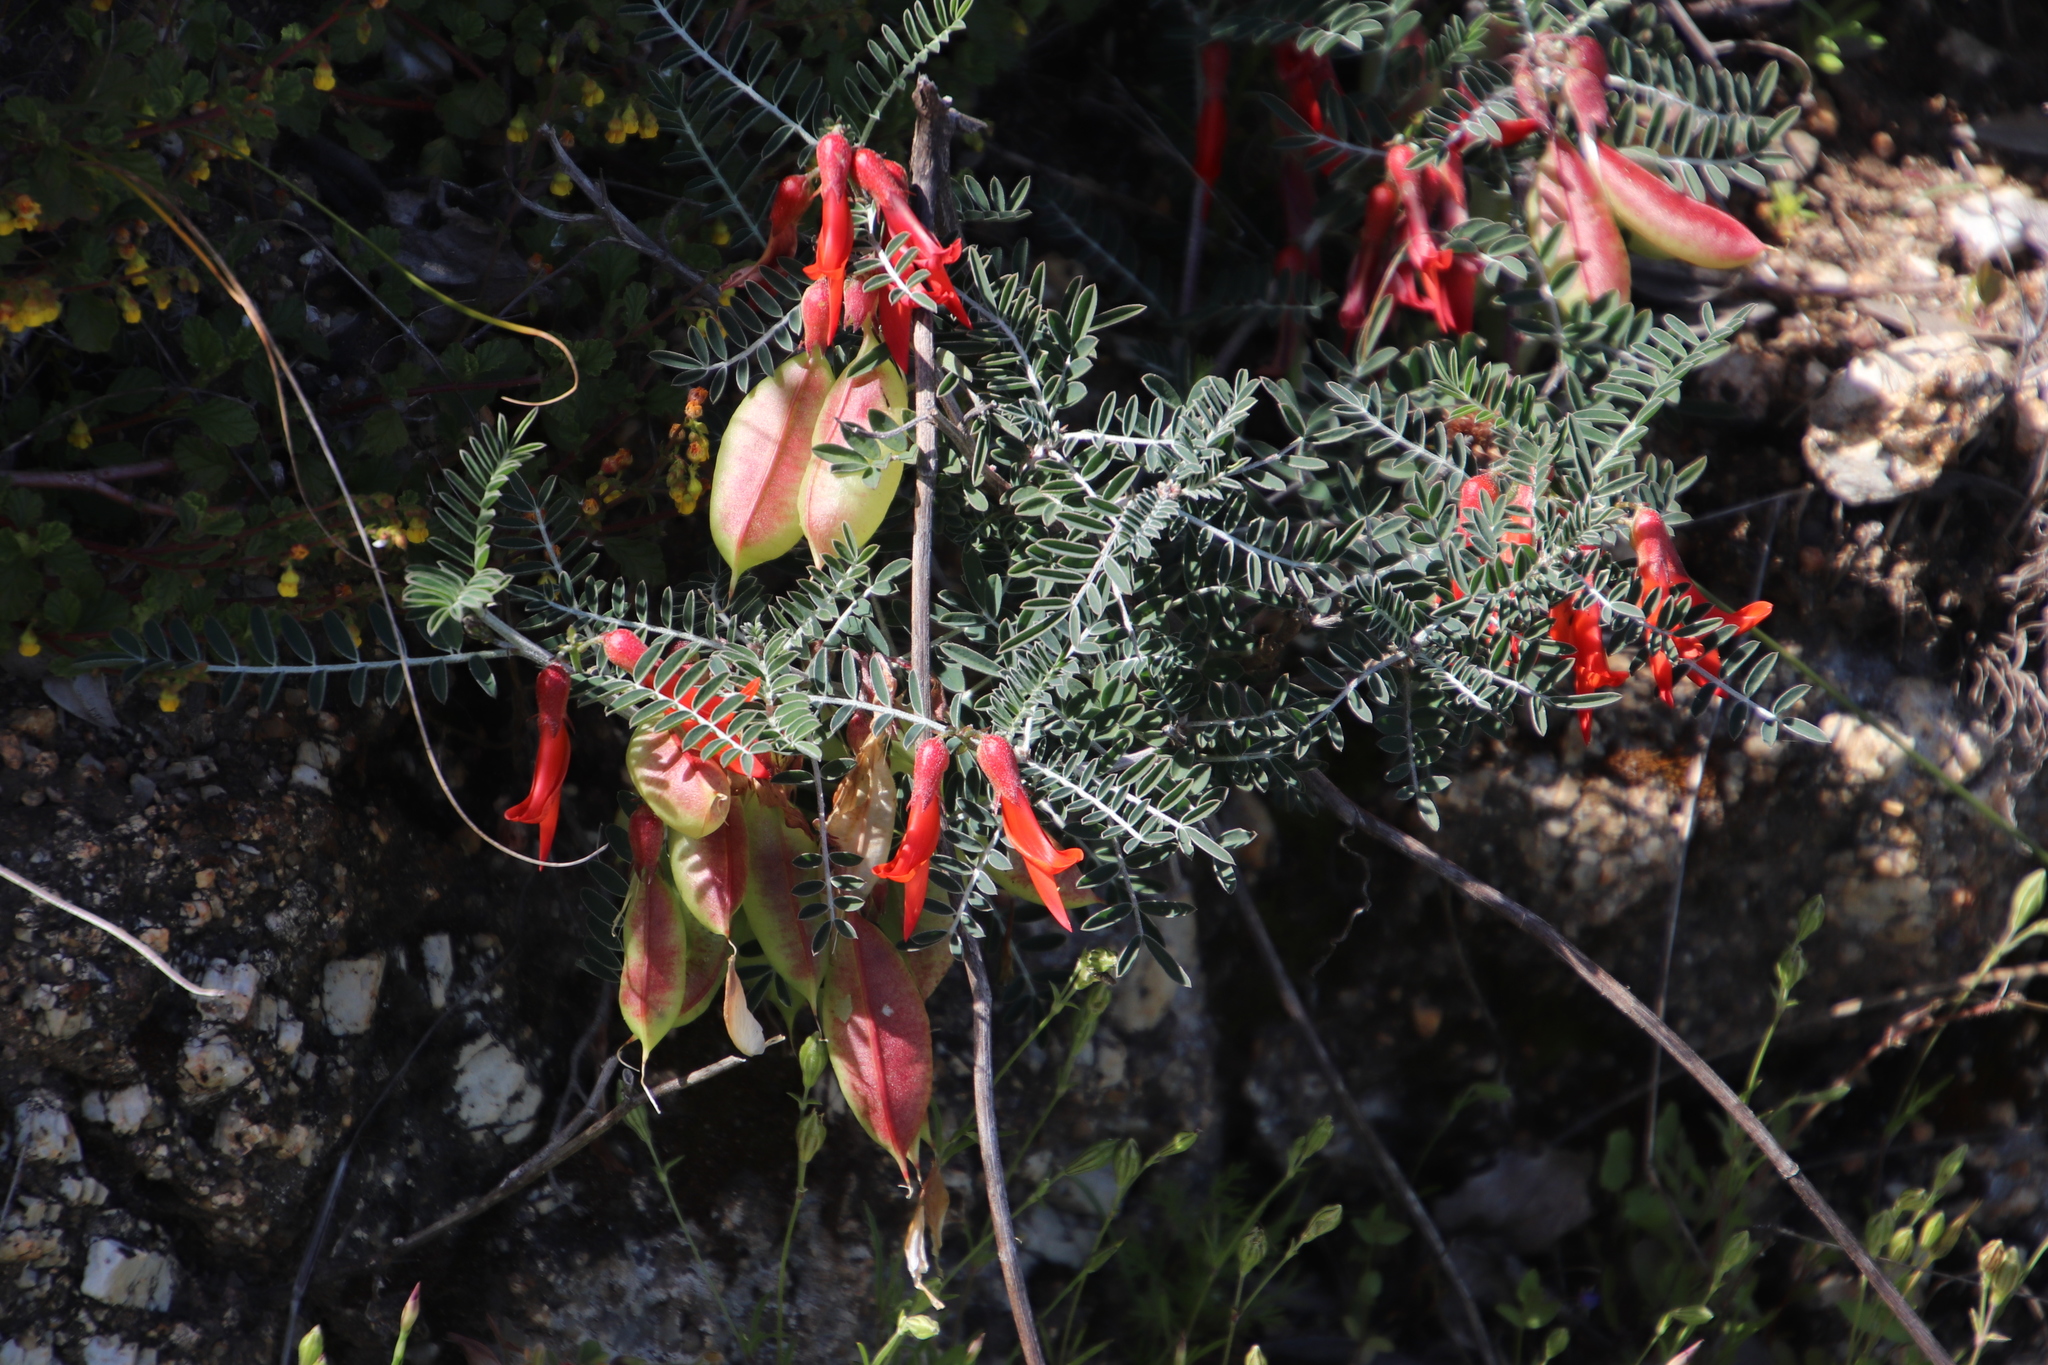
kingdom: Plantae
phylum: Tracheophyta
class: Magnoliopsida
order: Fabales
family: Fabaceae
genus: Lessertia
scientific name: Lessertia frutescens
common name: Balloon-pea
